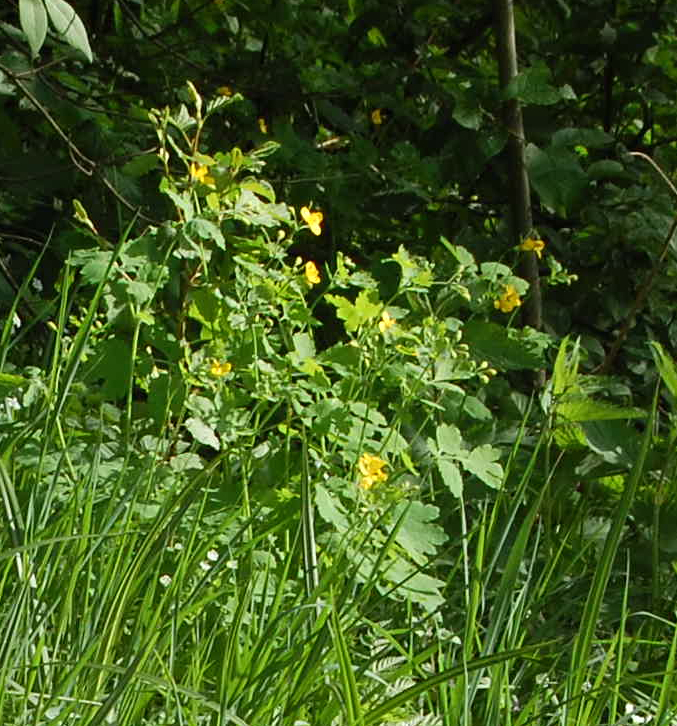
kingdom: Plantae
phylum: Tracheophyta
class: Magnoliopsida
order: Ranunculales
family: Papaveraceae
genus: Chelidonium
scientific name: Chelidonium majus
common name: Greater celandine
